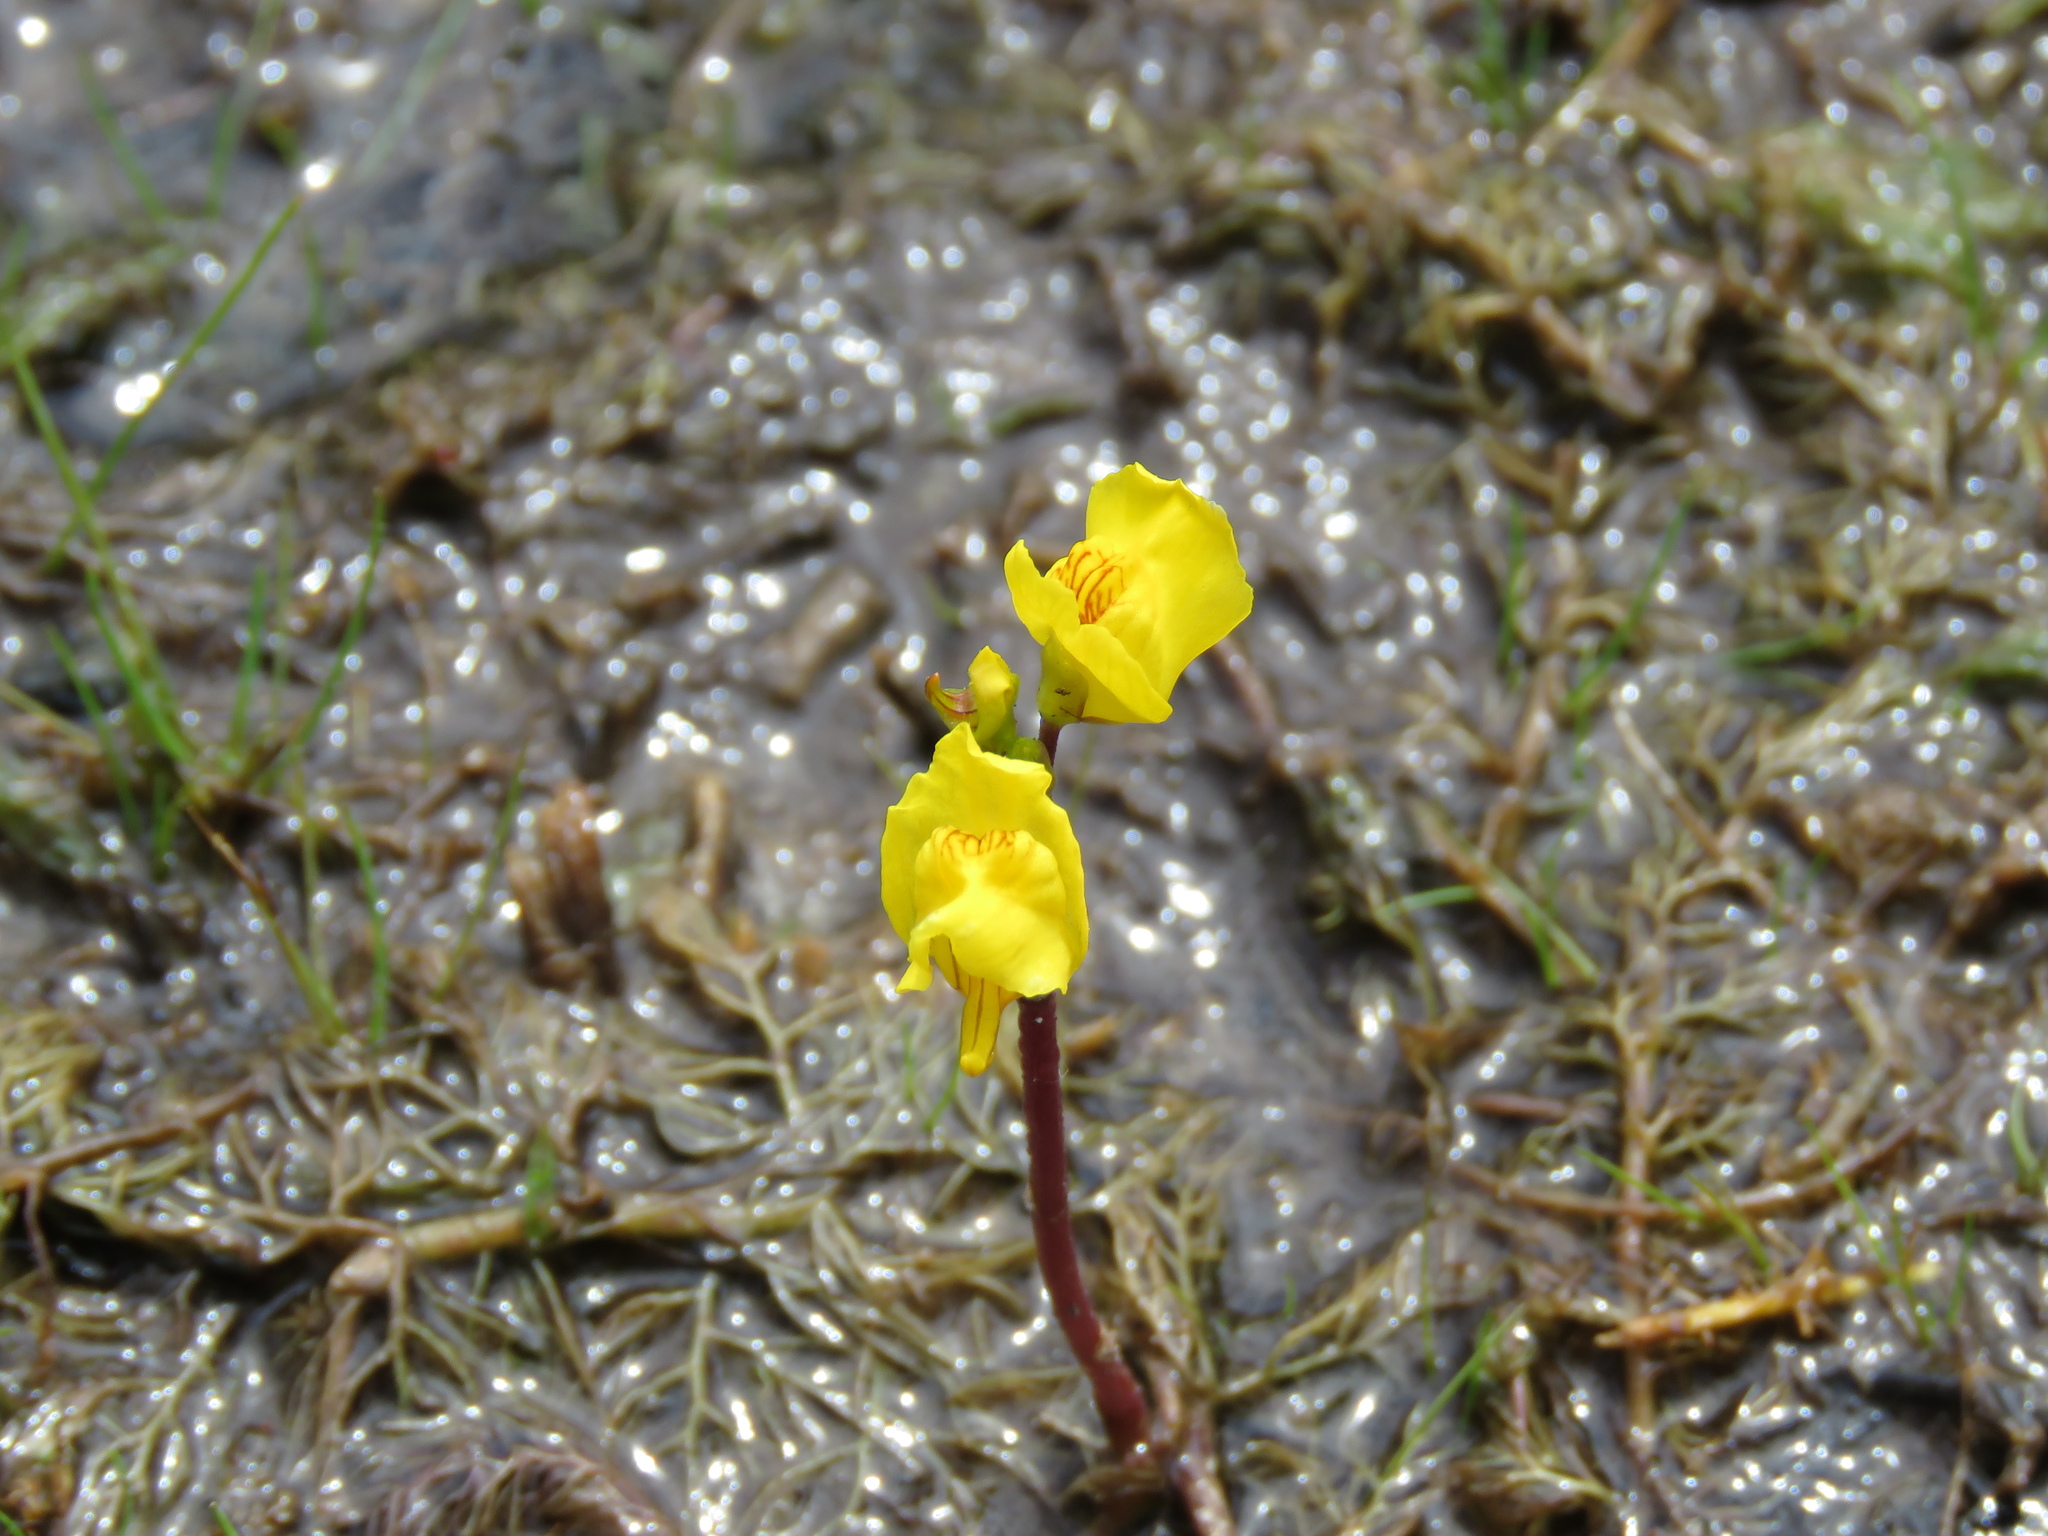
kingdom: Plantae
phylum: Tracheophyta
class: Magnoliopsida
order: Lamiales
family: Lentibulariaceae
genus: Utricularia
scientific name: Utricularia macrorhiza
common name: Common bladderwort
